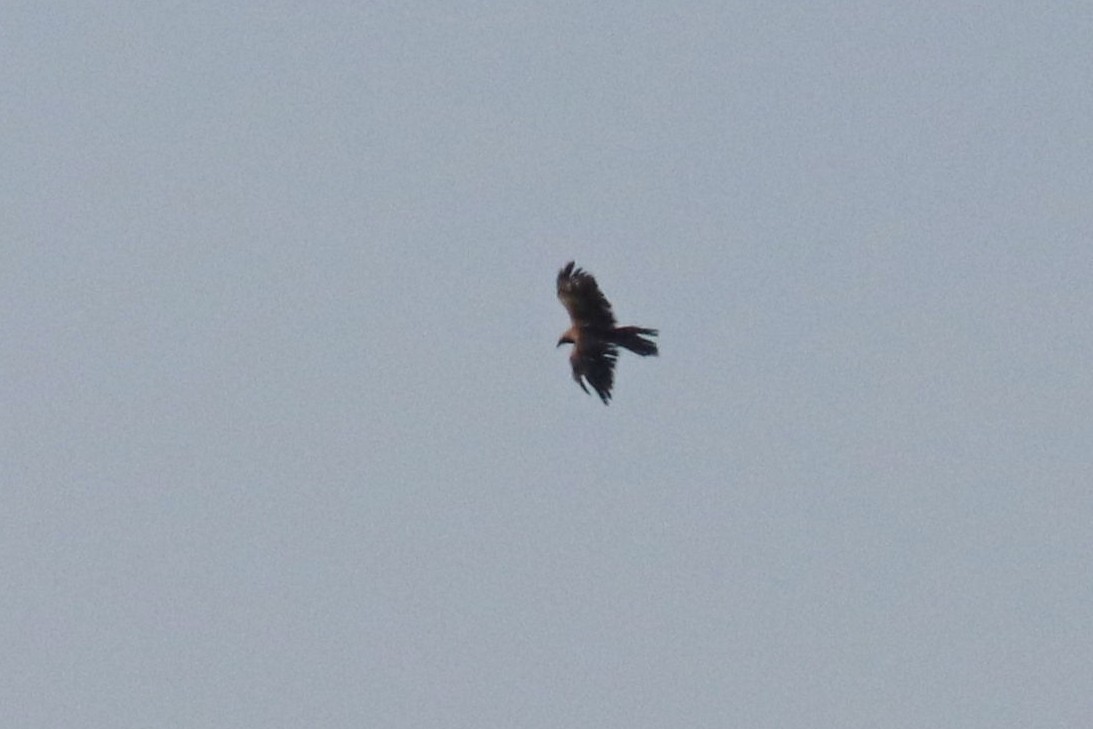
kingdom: Animalia
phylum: Chordata
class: Aves
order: Accipitriformes
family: Accipitridae
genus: Milvus
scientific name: Milvus migrans
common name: Black kite
